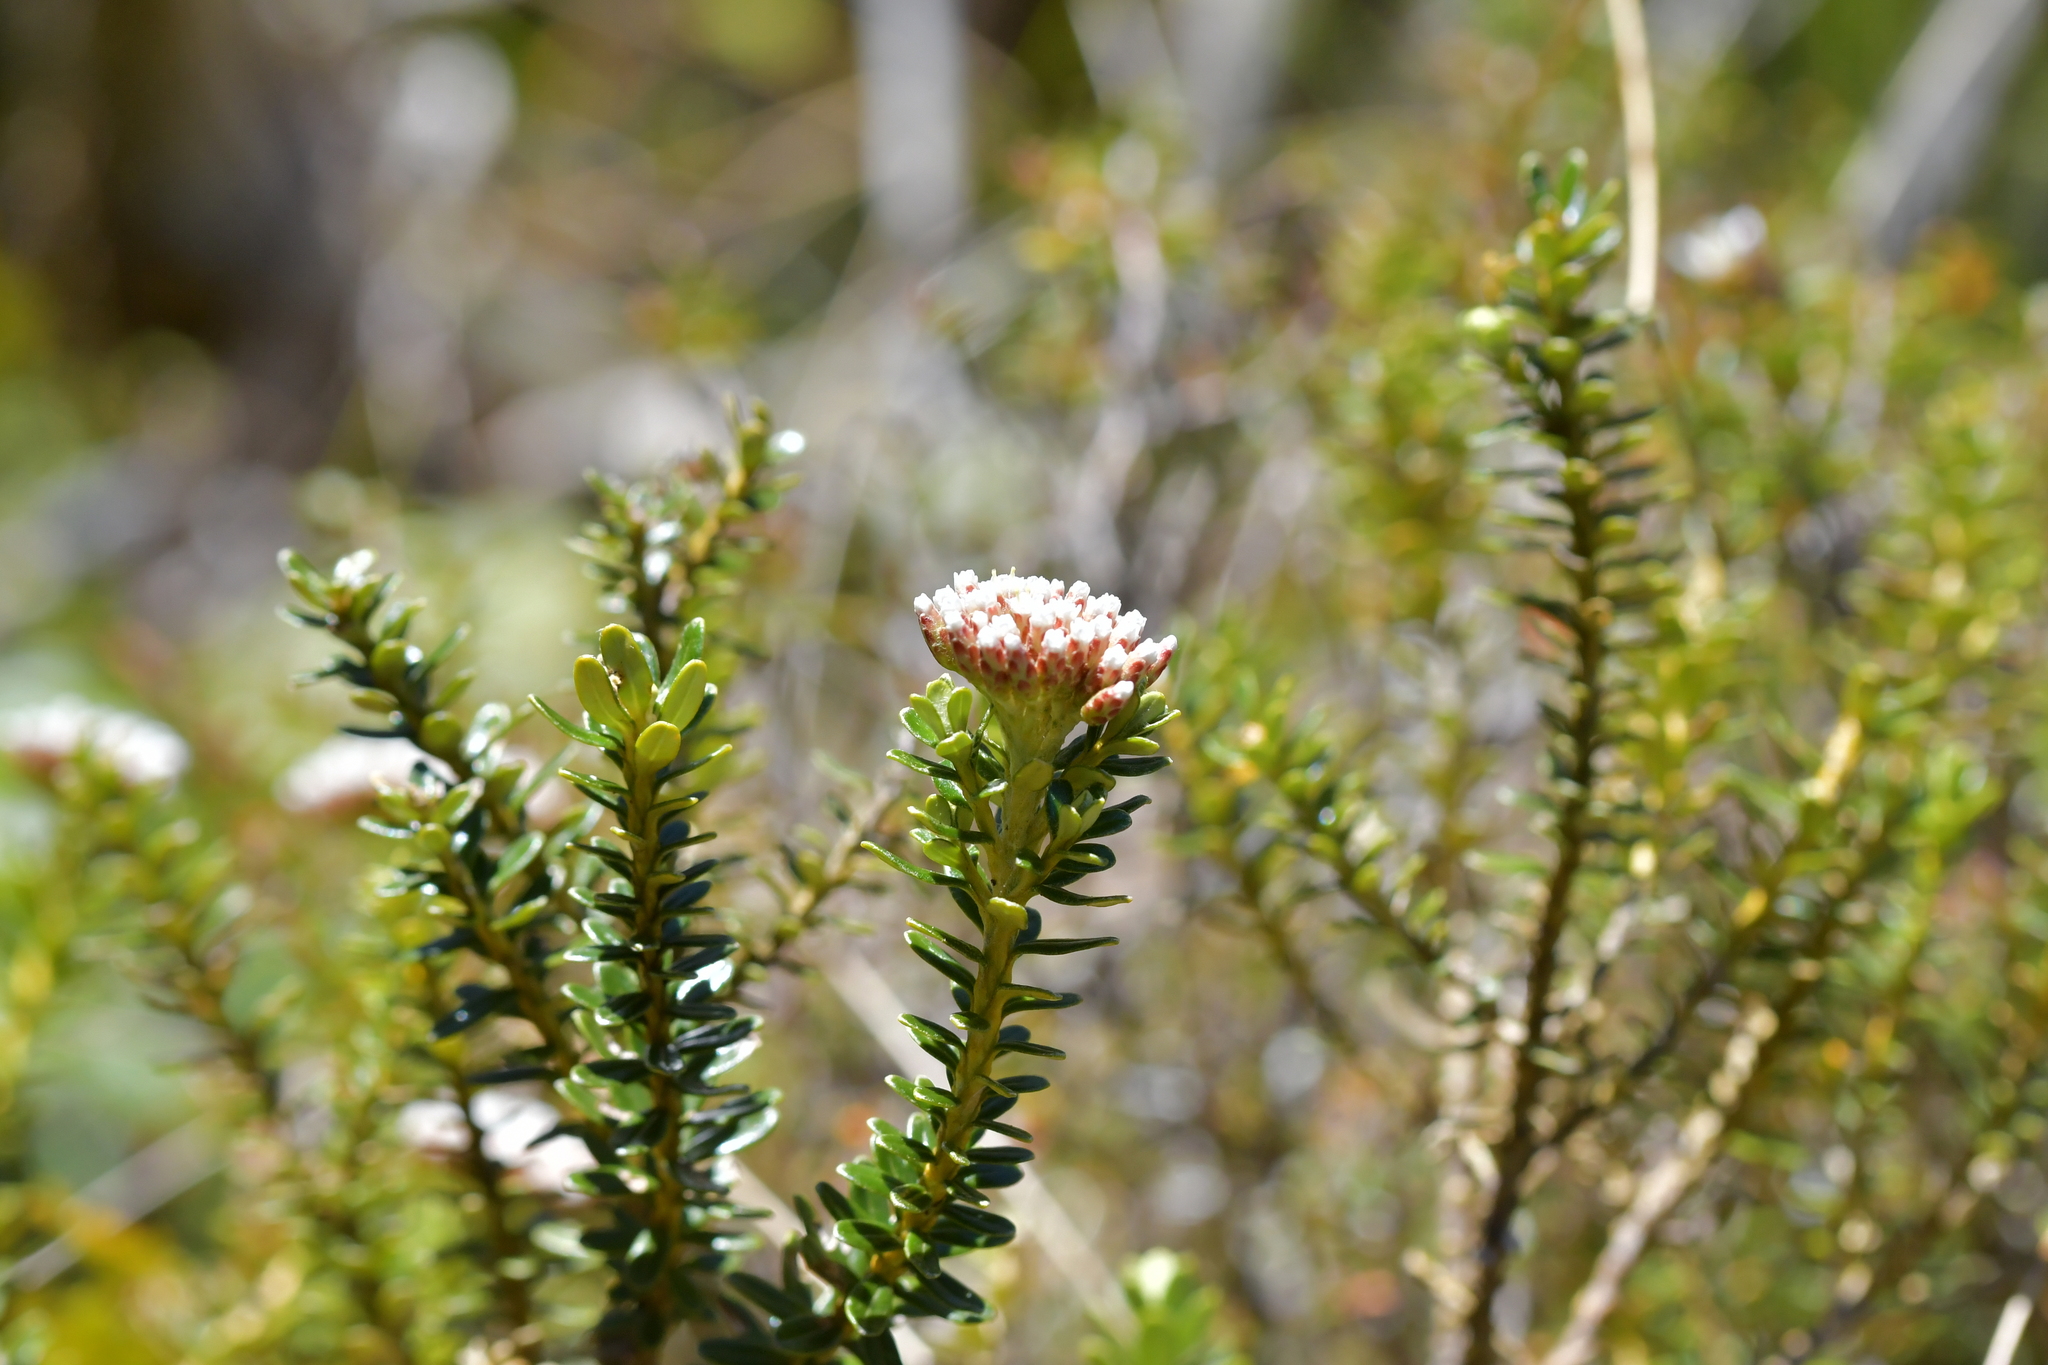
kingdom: Plantae
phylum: Tracheophyta
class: Magnoliopsida
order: Asterales
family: Asteraceae
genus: Ozothamnus
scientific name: Ozothamnus leptophyllus
